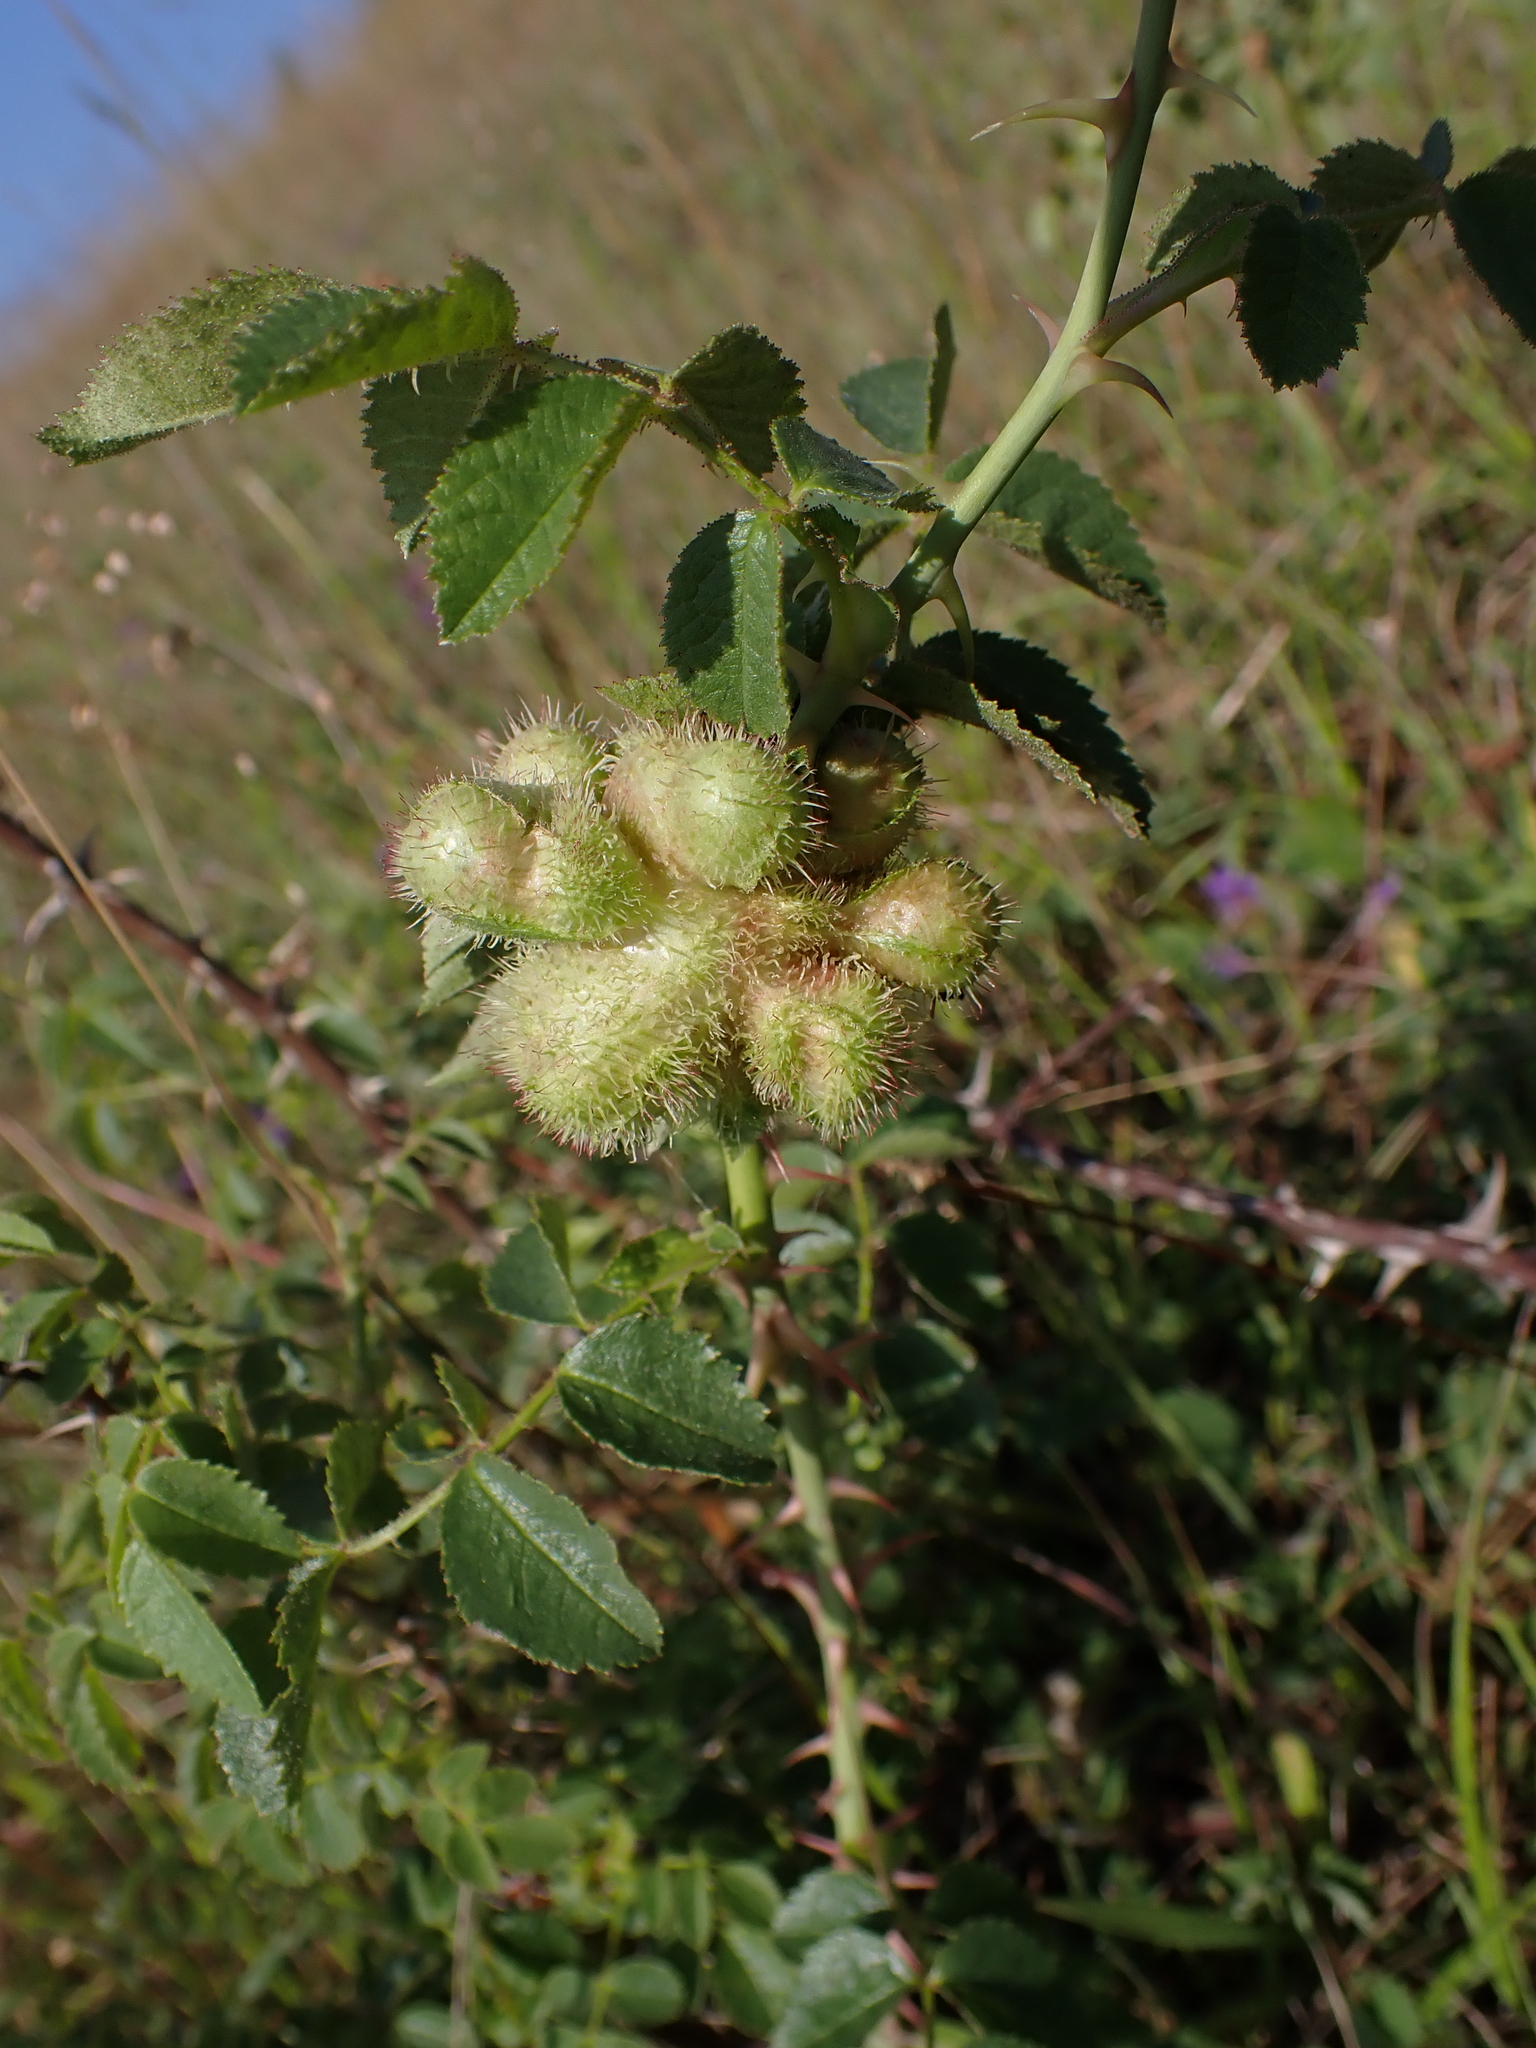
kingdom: Animalia
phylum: Arthropoda
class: Insecta
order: Hymenoptera
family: Cynipidae
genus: Diplolepis
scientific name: Diplolepis mayri
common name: Gall wasp
